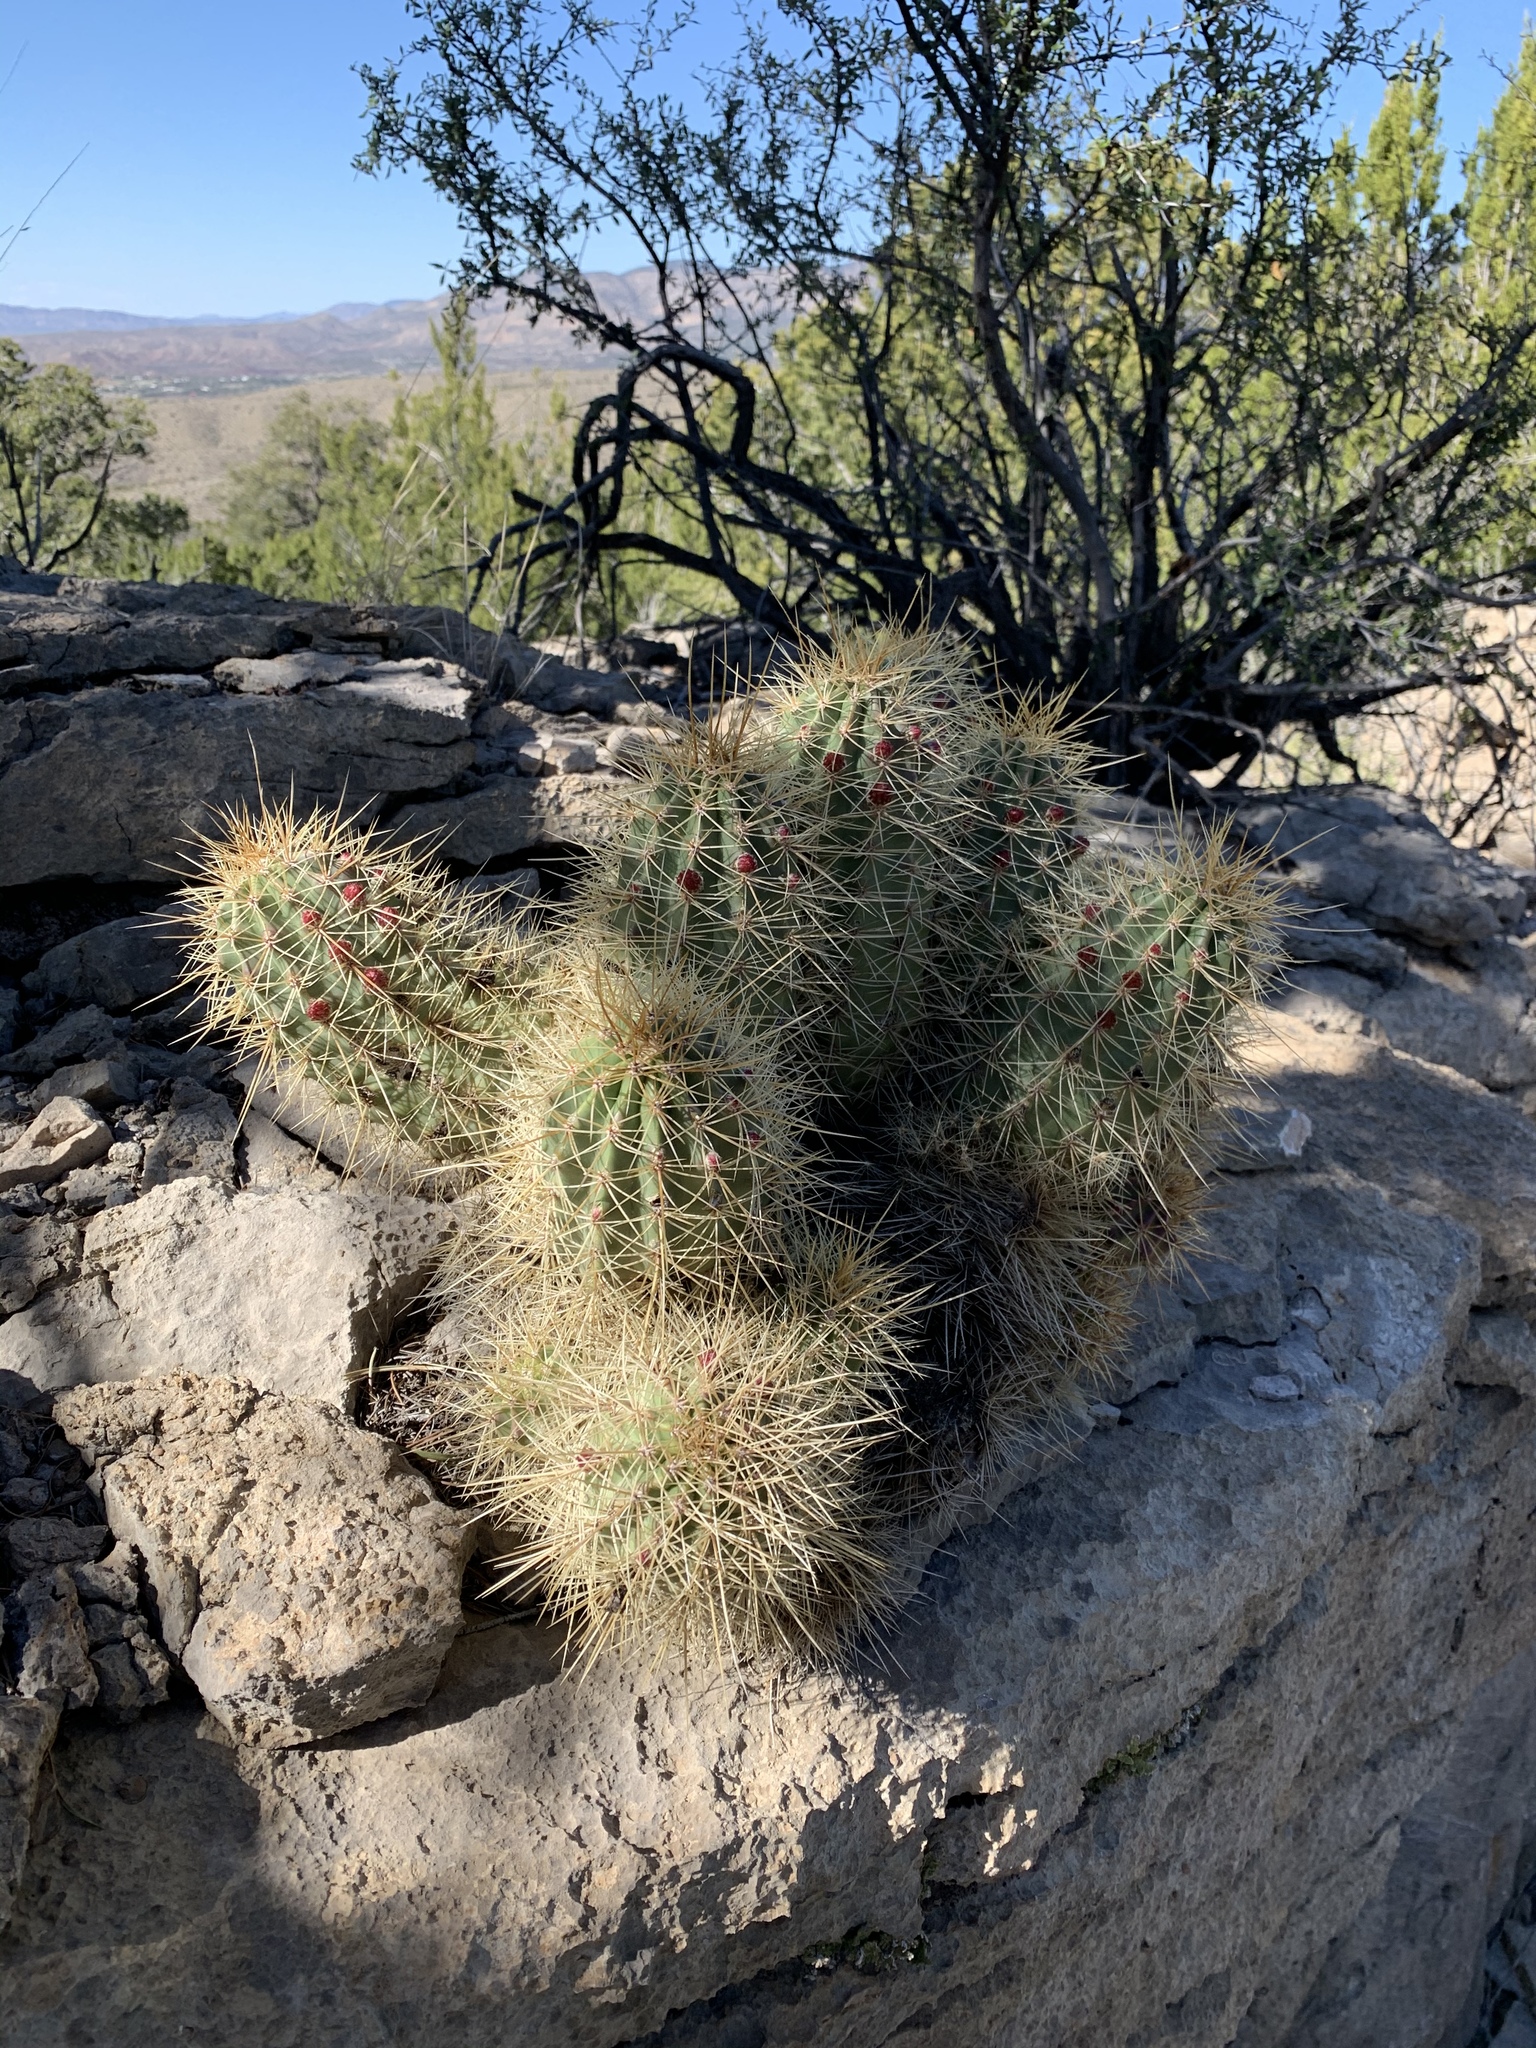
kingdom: Plantae
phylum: Tracheophyta
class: Magnoliopsida
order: Caryophyllales
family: Cactaceae
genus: Echinocereus
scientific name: Echinocereus coccineus
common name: Scarlet hedgehog cactus
